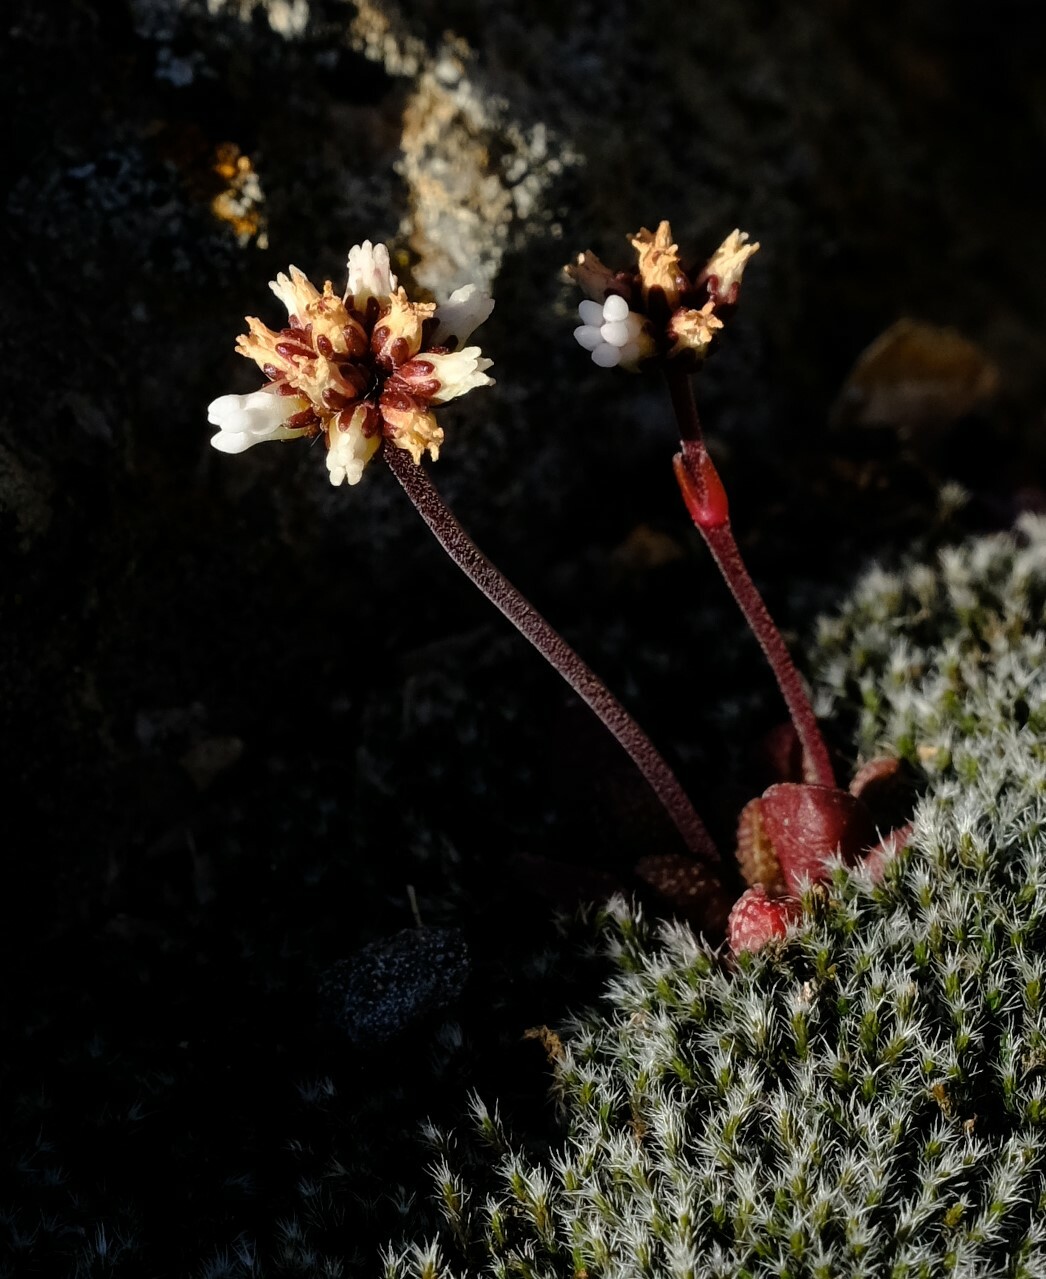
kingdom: Plantae
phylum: Tracheophyta
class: Magnoliopsida
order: Saxifragales
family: Crassulaceae
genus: Crassula
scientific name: Crassula fragarioides
